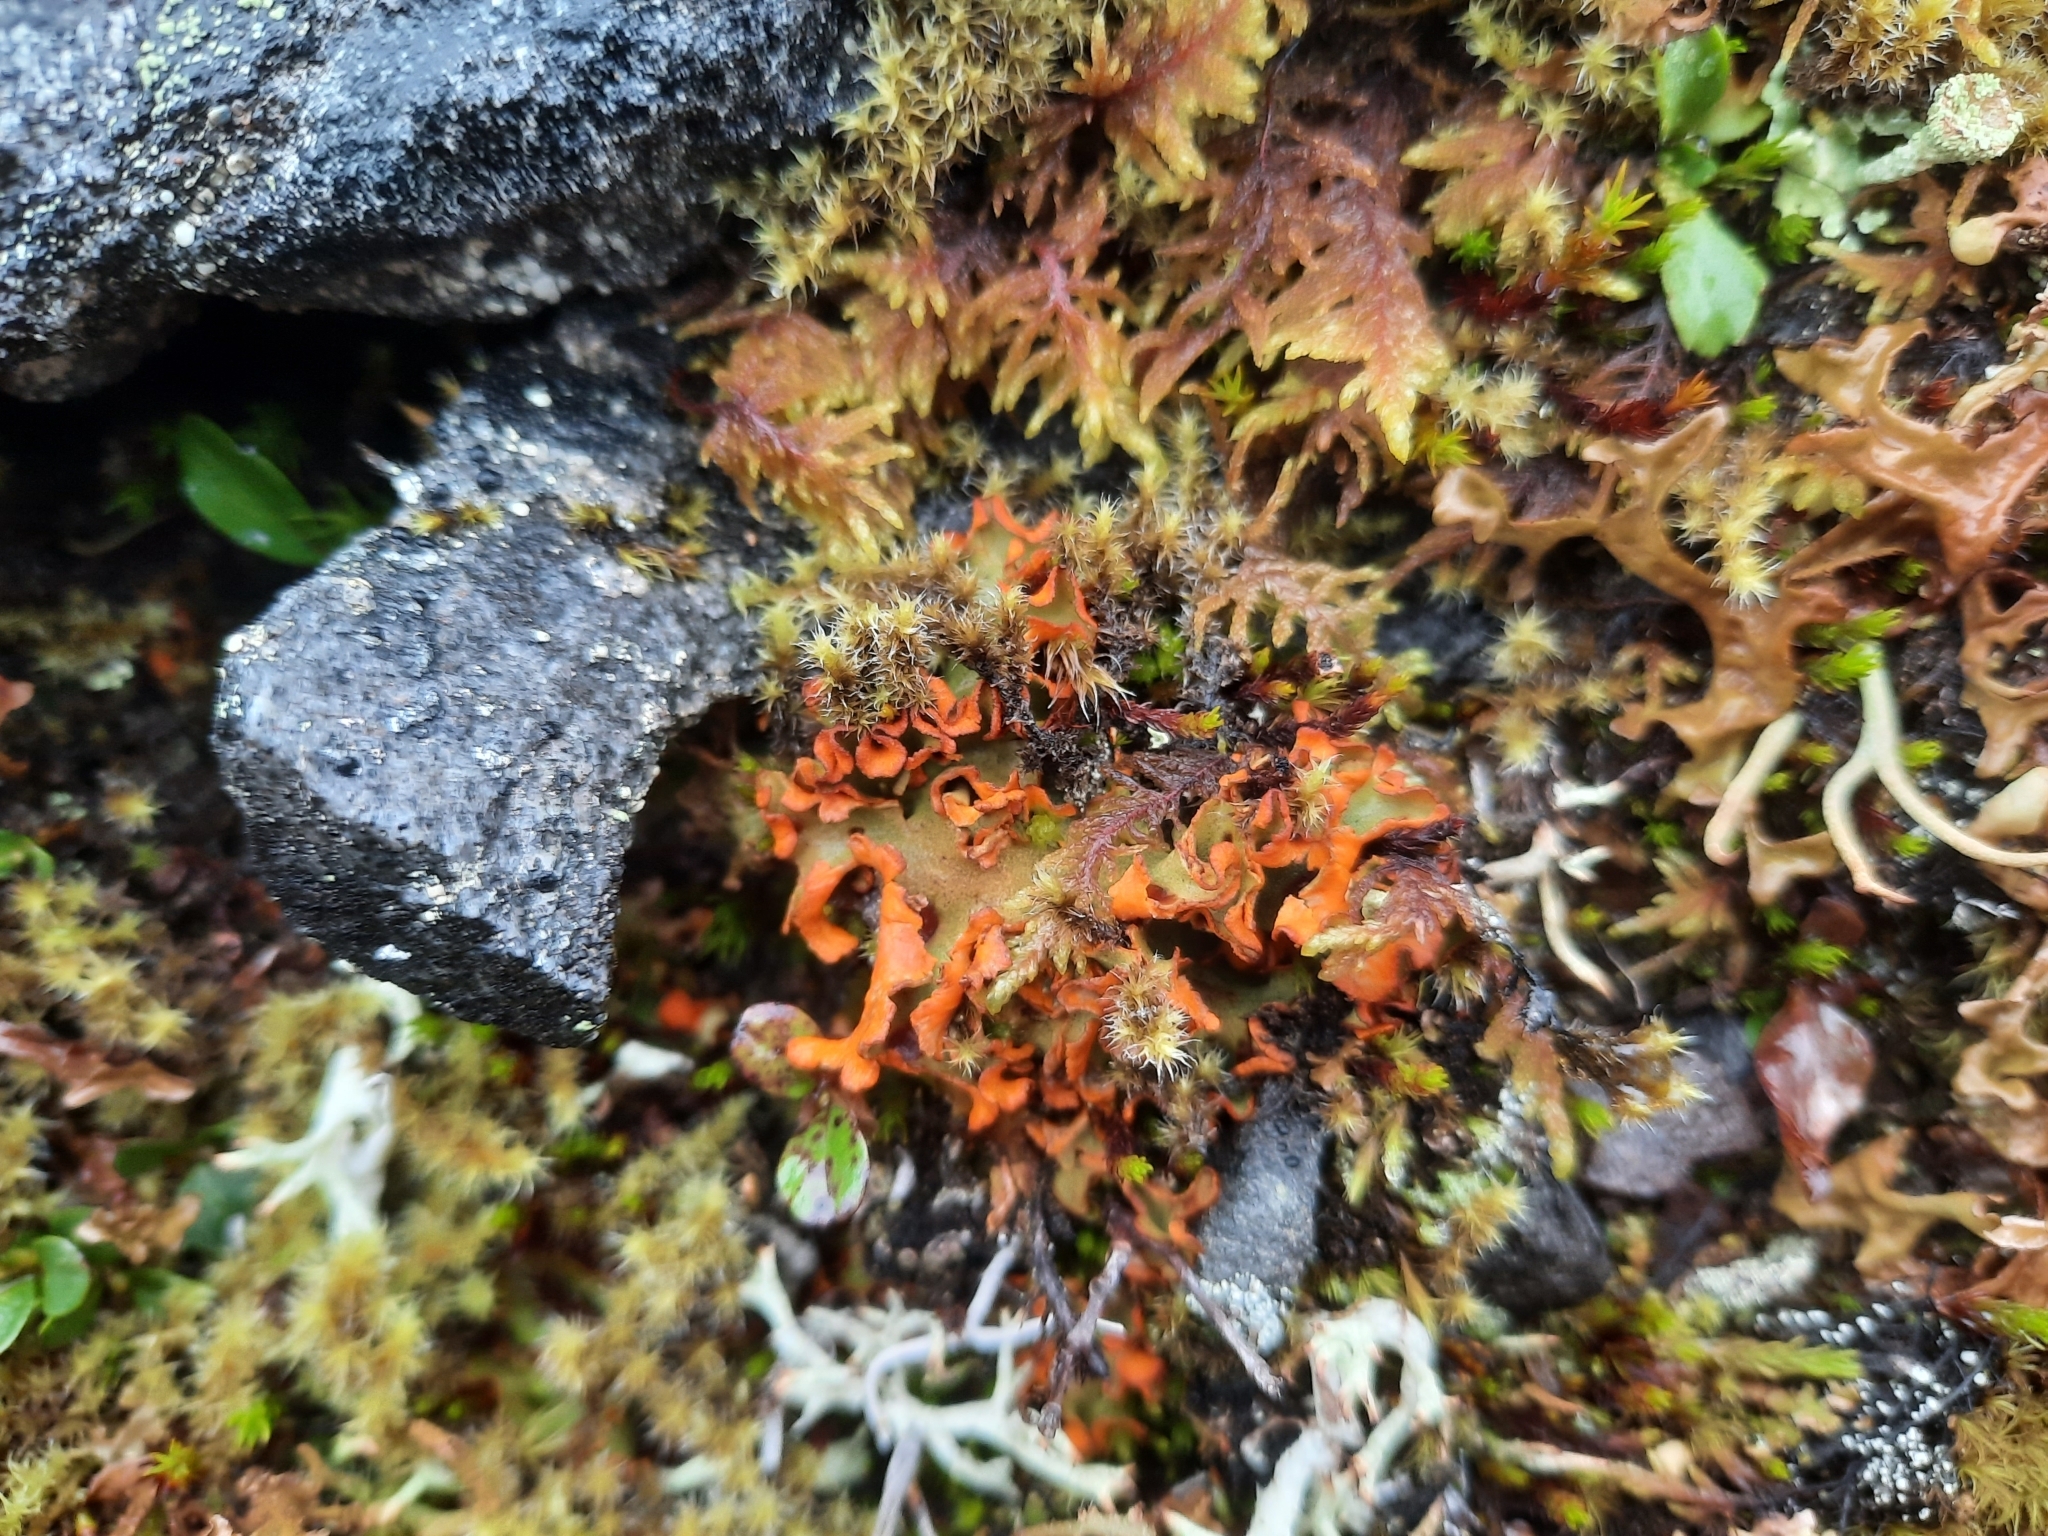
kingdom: Fungi
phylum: Ascomycota
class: Lecanoromycetes
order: Peltigerales
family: Peltigeraceae
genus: Solorina
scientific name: Solorina crocea
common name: Mountain saffron
